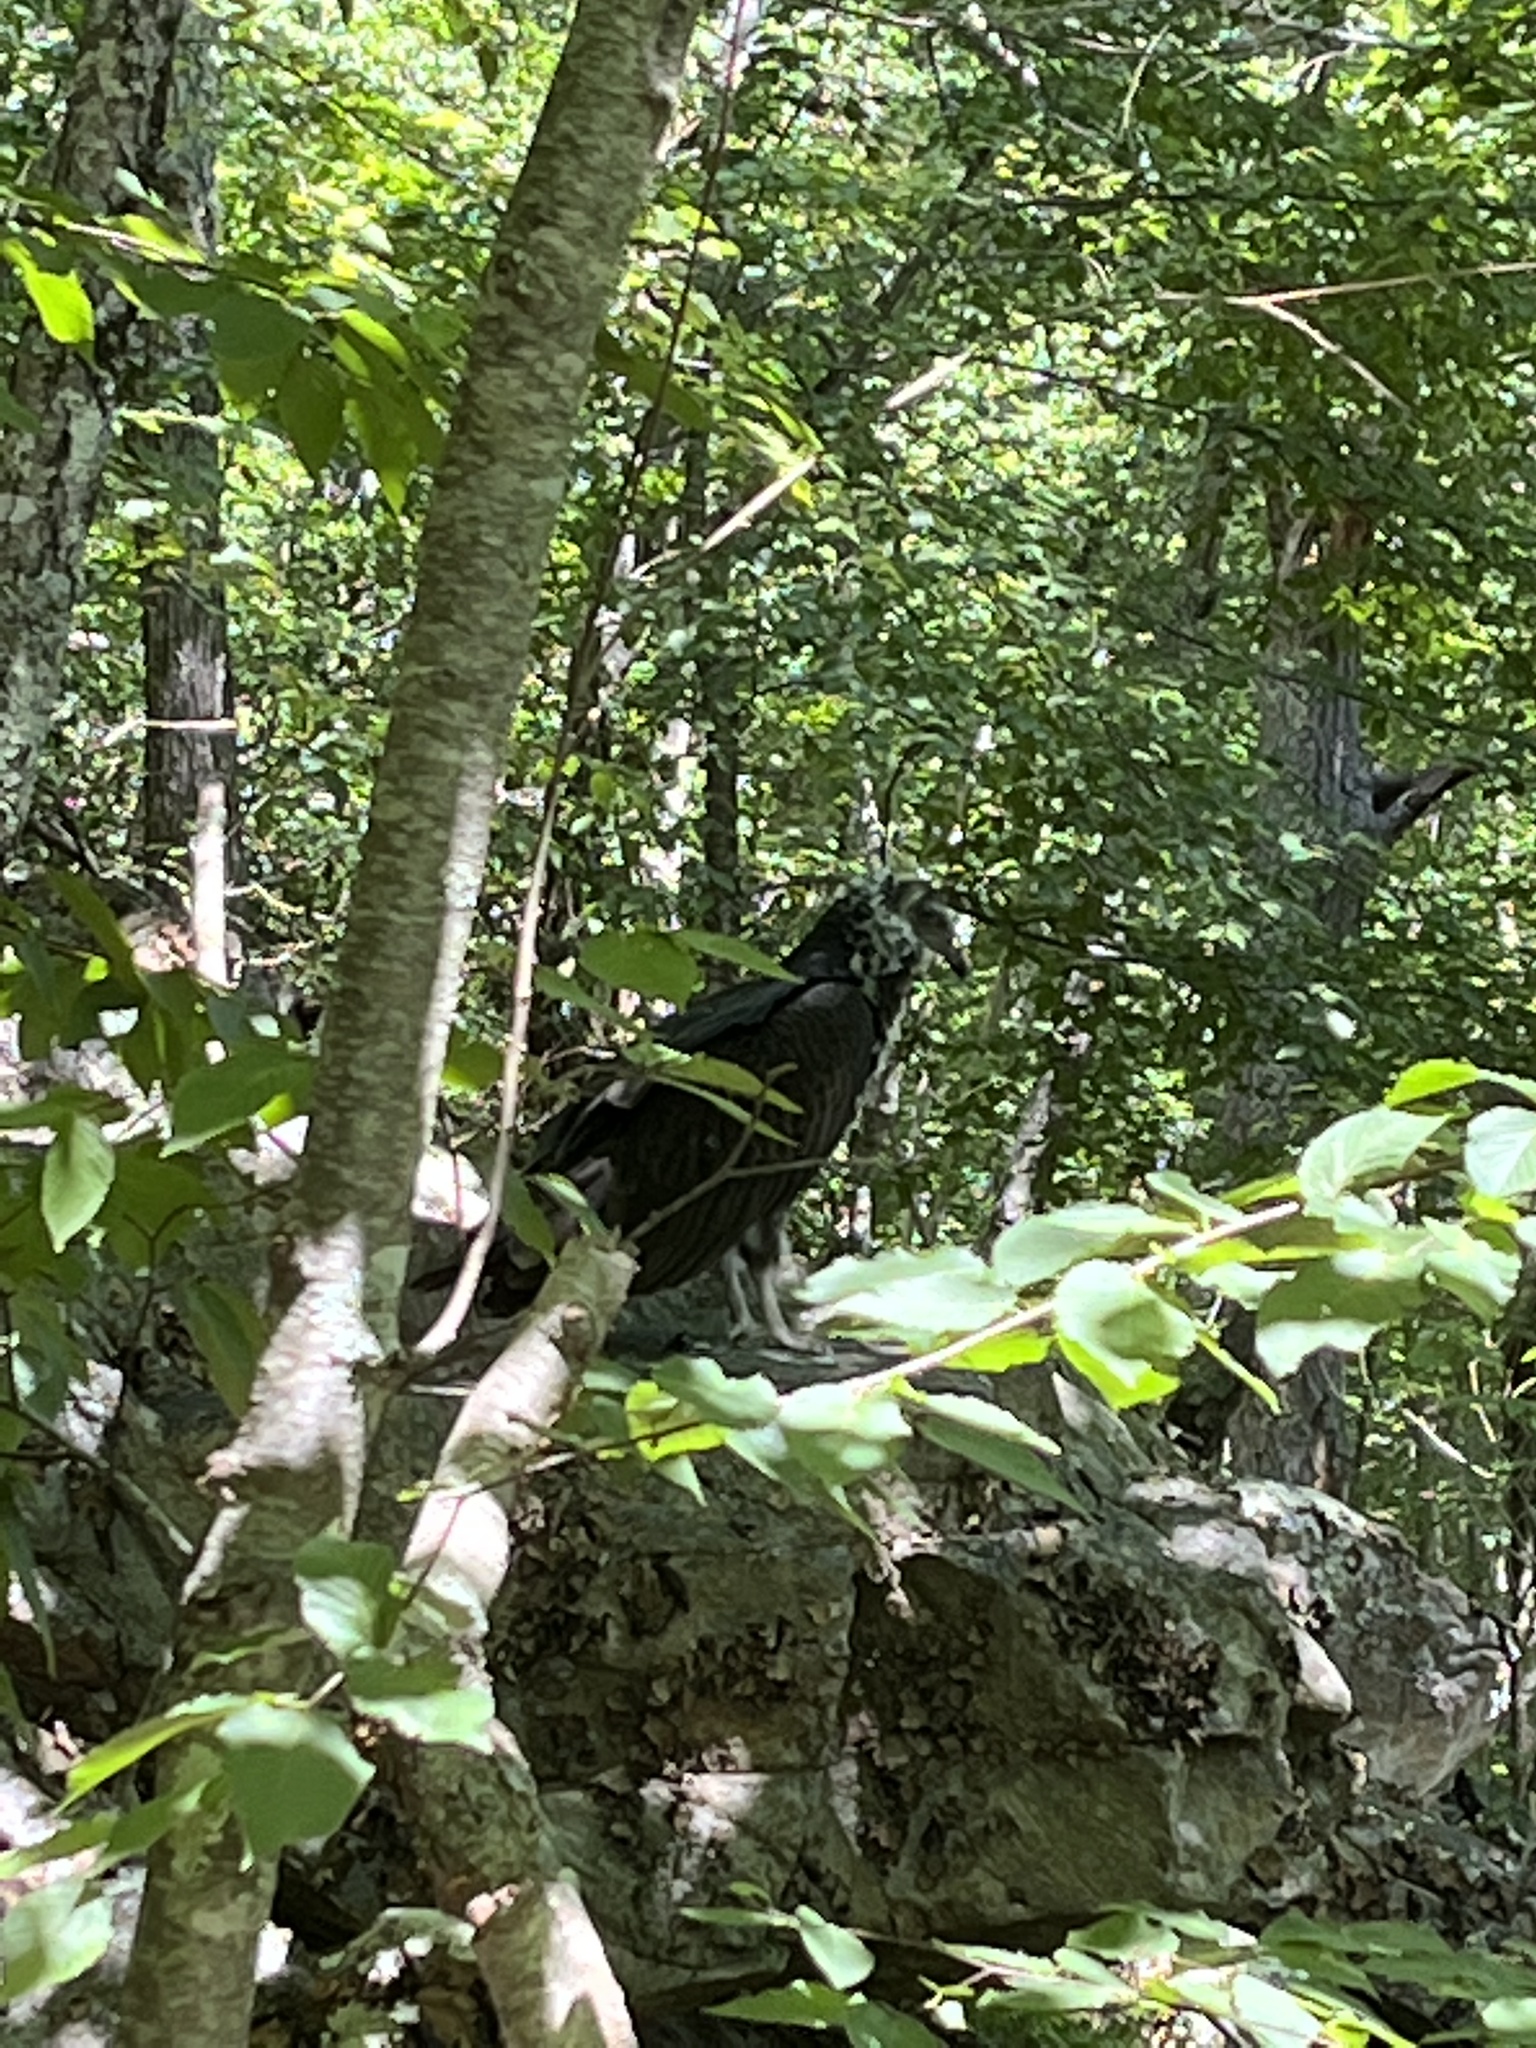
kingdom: Animalia
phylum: Chordata
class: Aves
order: Accipitriformes
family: Cathartidae
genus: Cathartes
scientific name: Cathartes aura
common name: Turkey vulture
